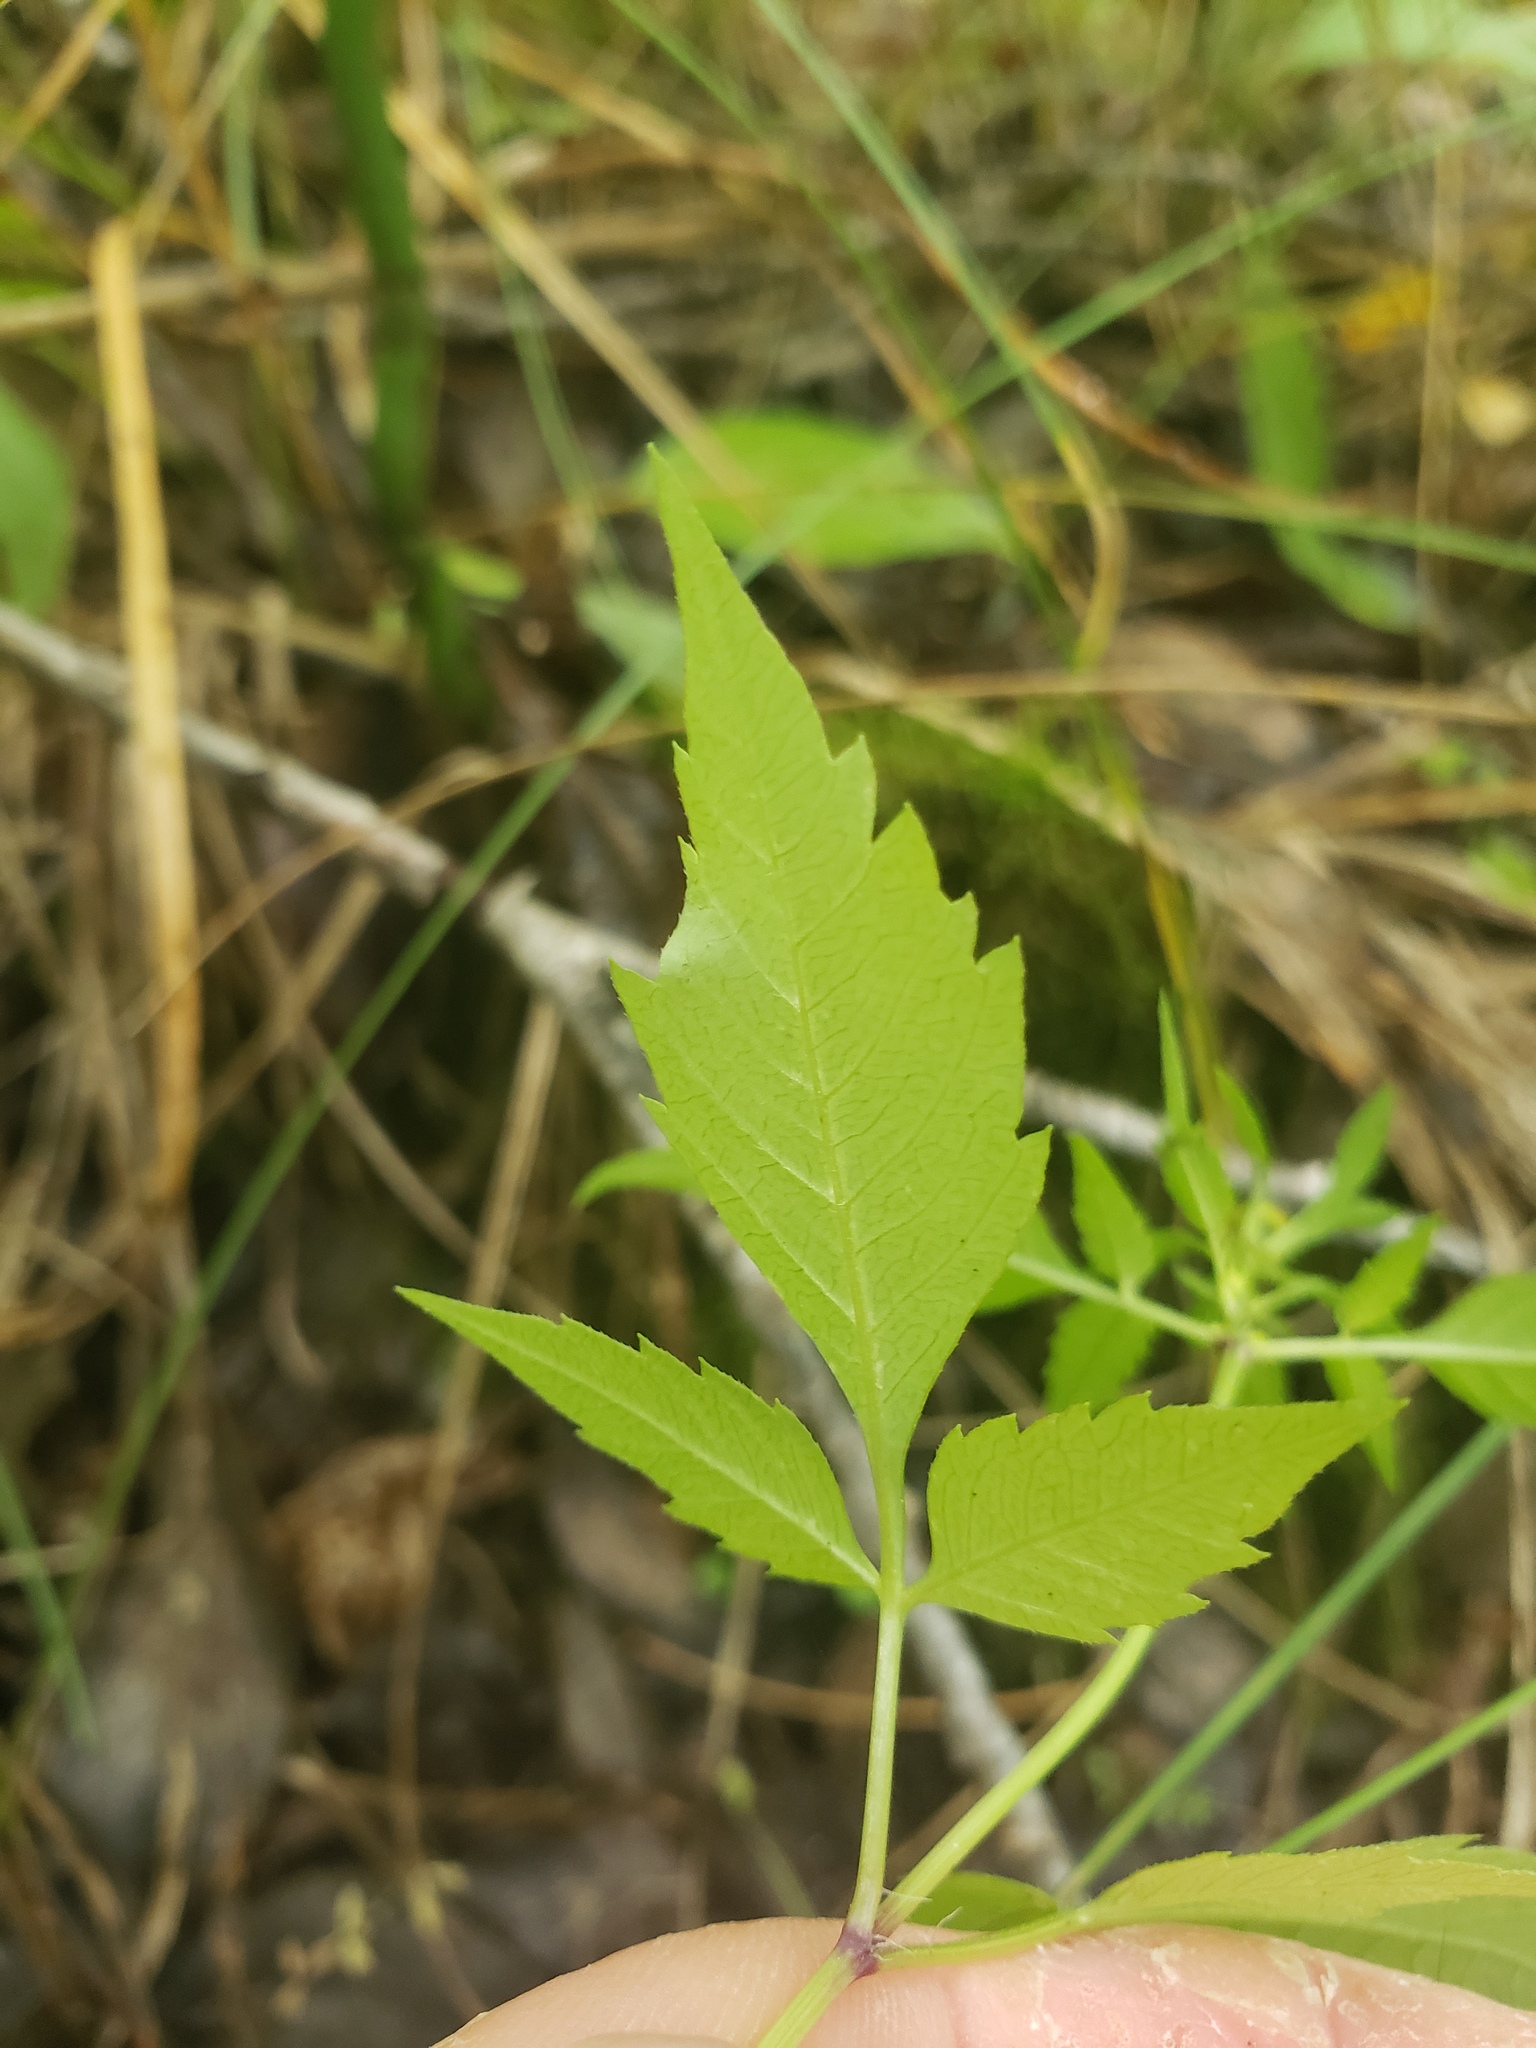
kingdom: Plantae
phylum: Tracheophyta
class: Magnoliopsida
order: Asterales
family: Asteraceae
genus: Bidens
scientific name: Bidens frondosa
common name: Beggarticks
